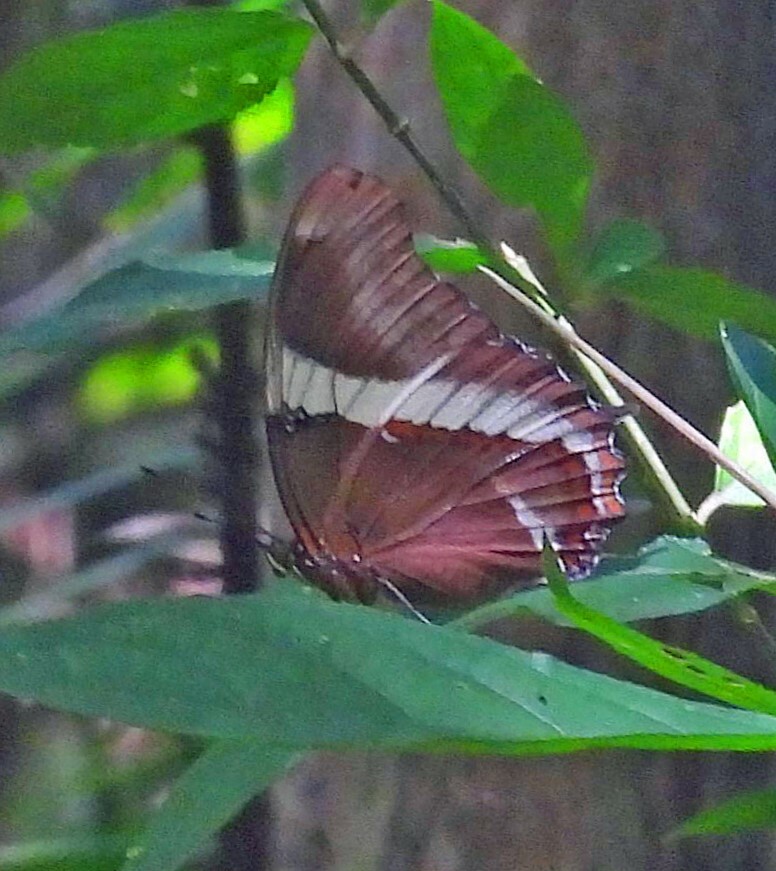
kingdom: Animalia
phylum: Arthropoda
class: Insecta
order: Lepidoptera
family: Nymphalidae
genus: Siproeta
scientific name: Siproeta epaphus
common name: Rusty-tipped page
